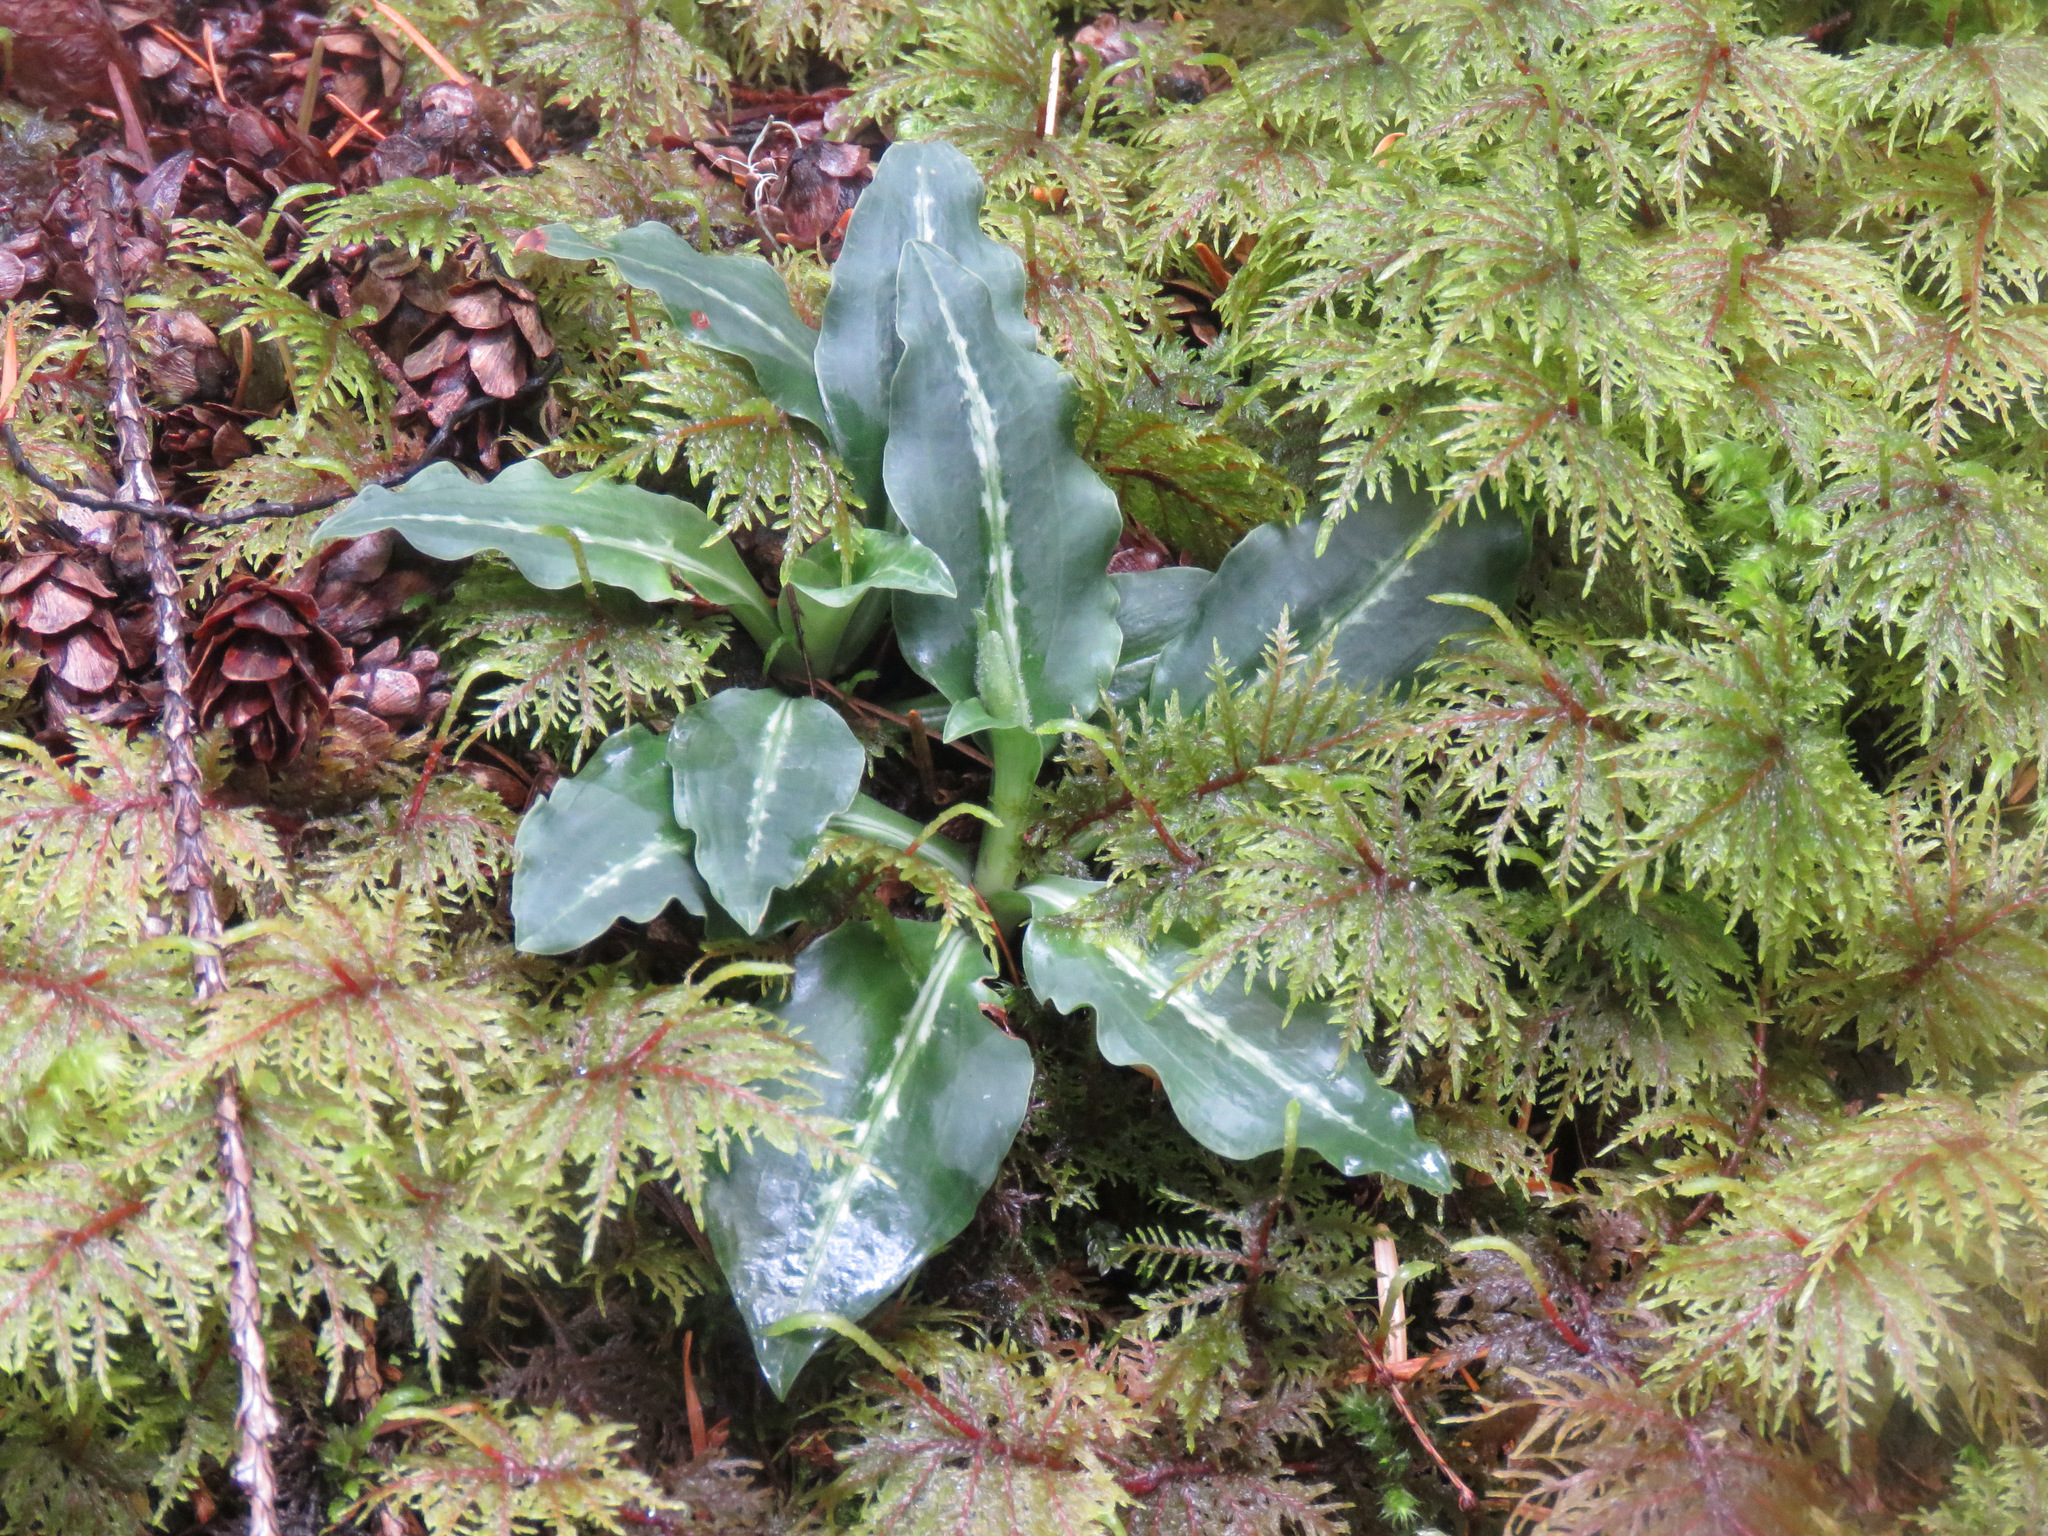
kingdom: Plantae
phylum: Tracheophyta
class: Liliopsida
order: Asparagales
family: Orchidaceae
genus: Goodyera
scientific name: Goodyera oblongifolia
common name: Giant rattlesnake-plantain
